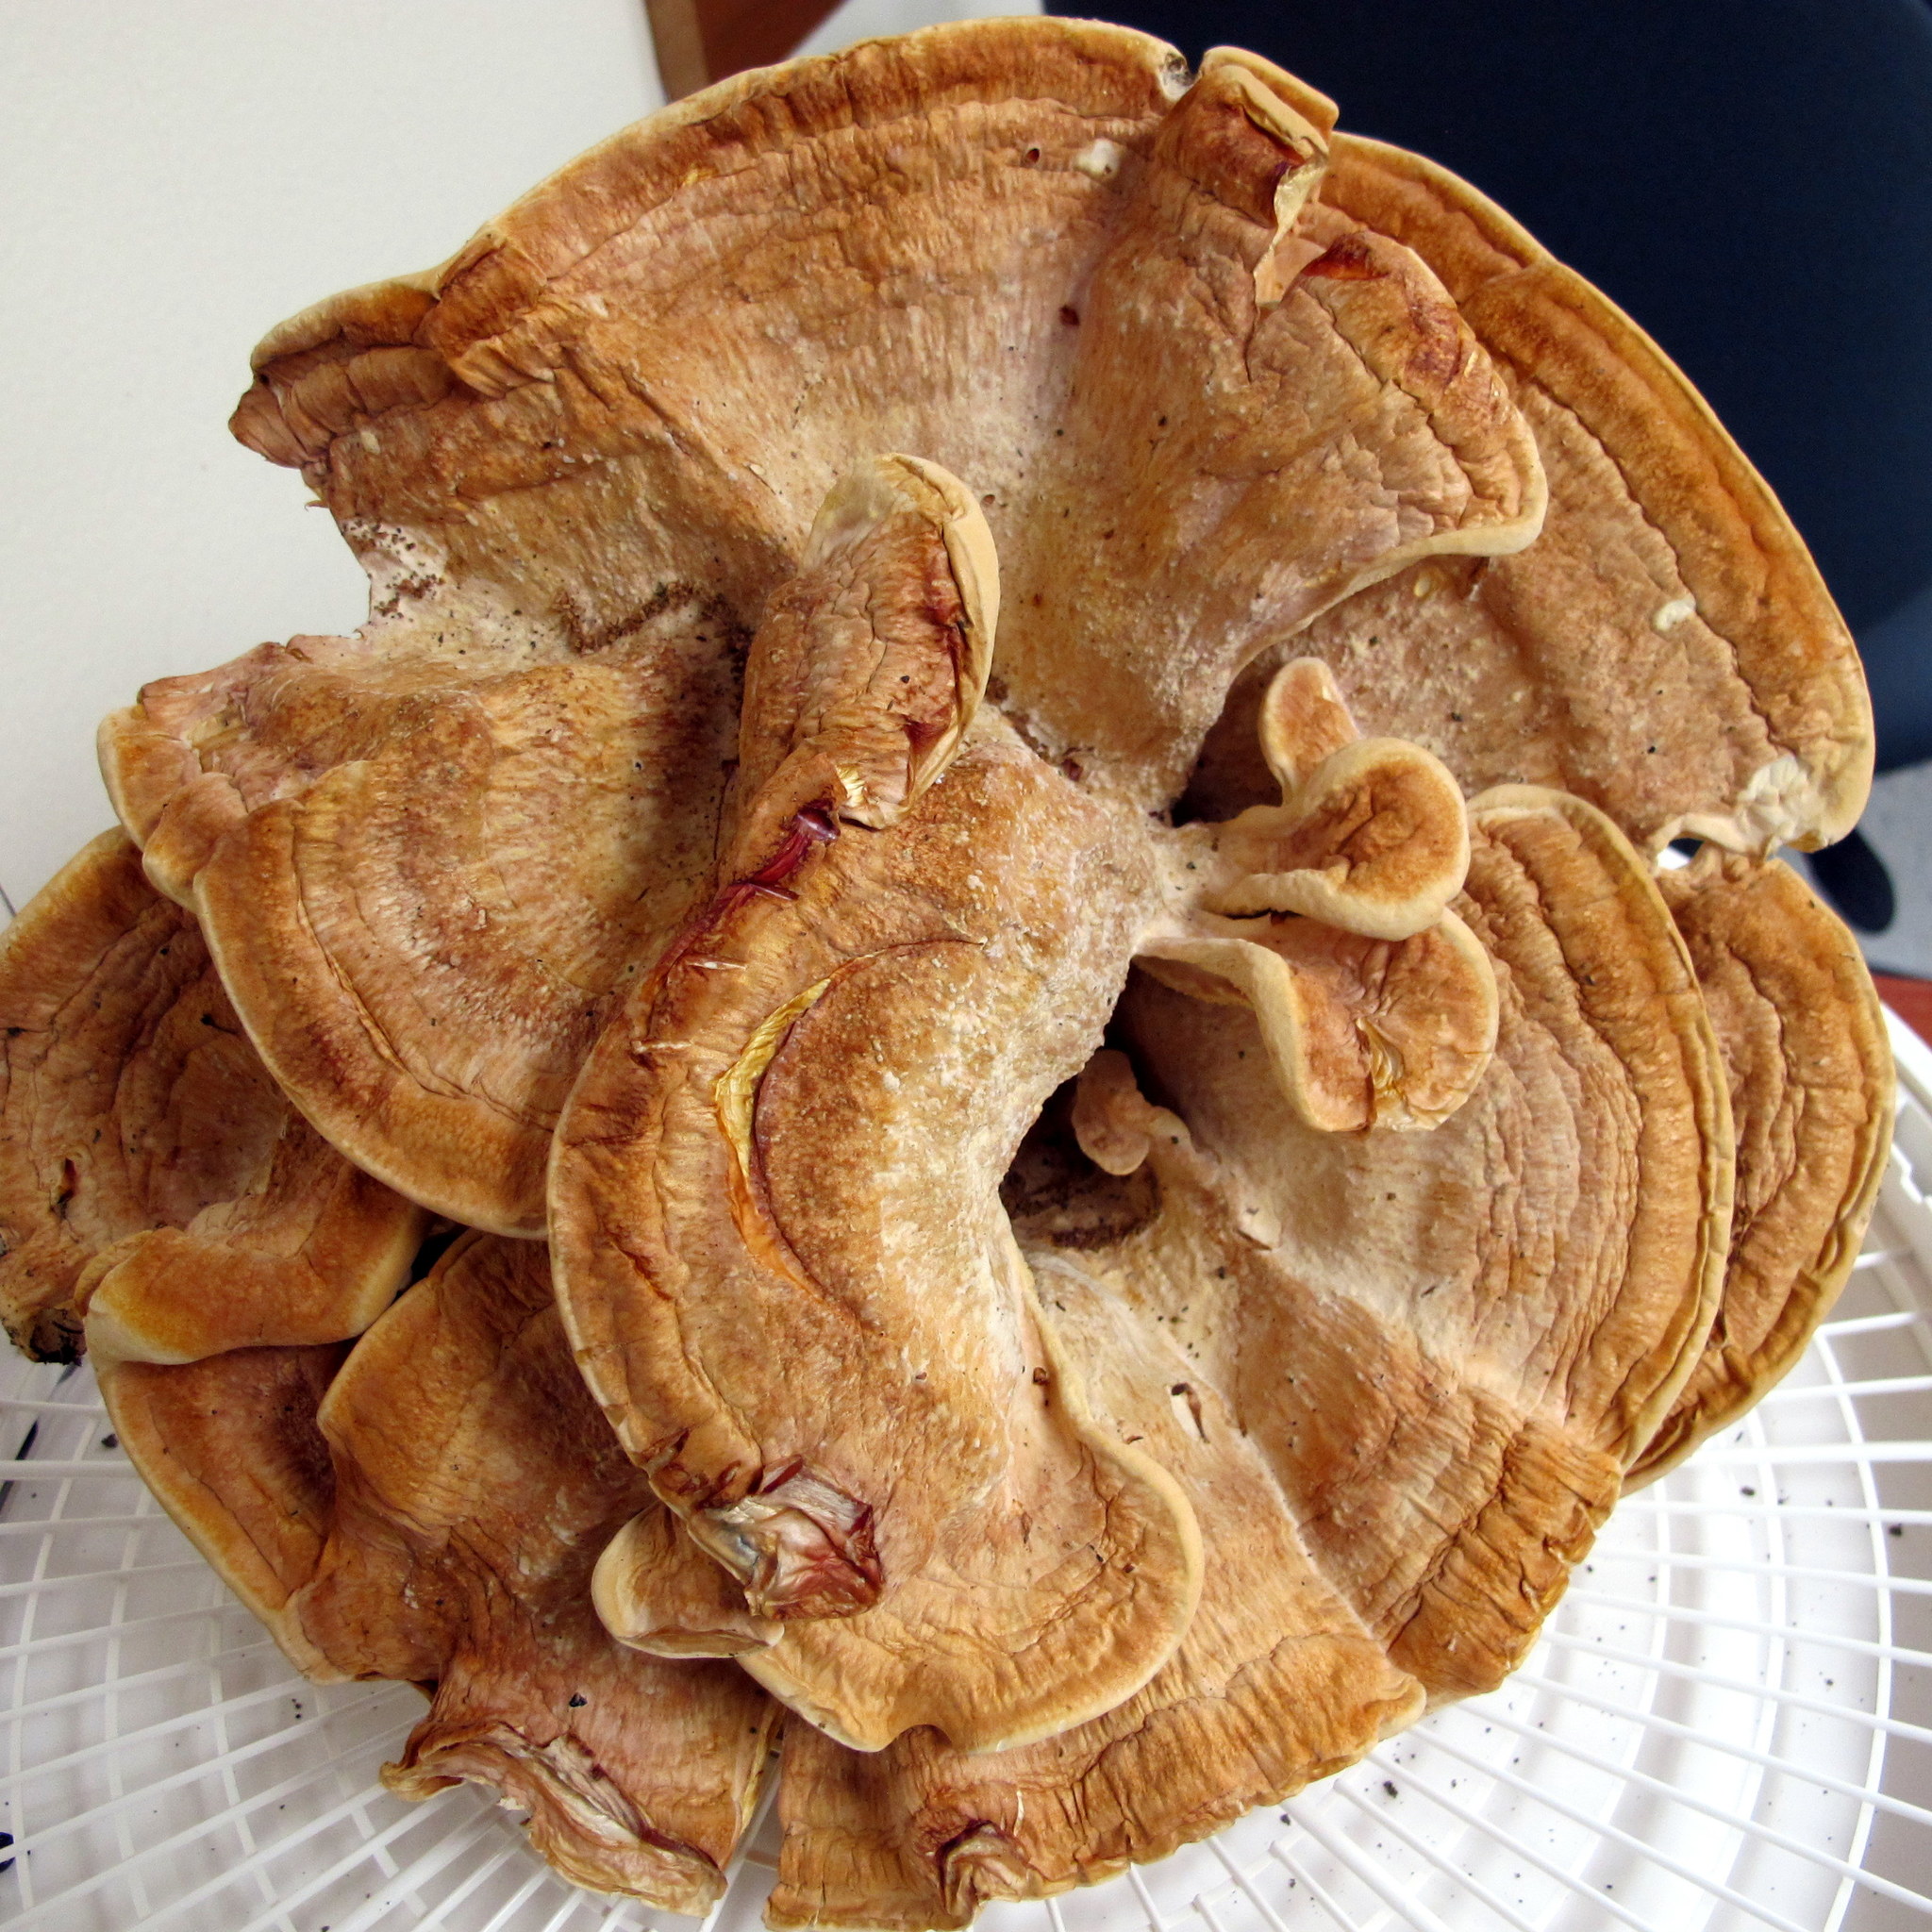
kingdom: Fungi
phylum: Basidiomycota
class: Agaricomycetes
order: Russulales
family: Bondarzewiaceae
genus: Bondarzewia
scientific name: Bondarzewia berkeleyi
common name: Berkeley's polypore
